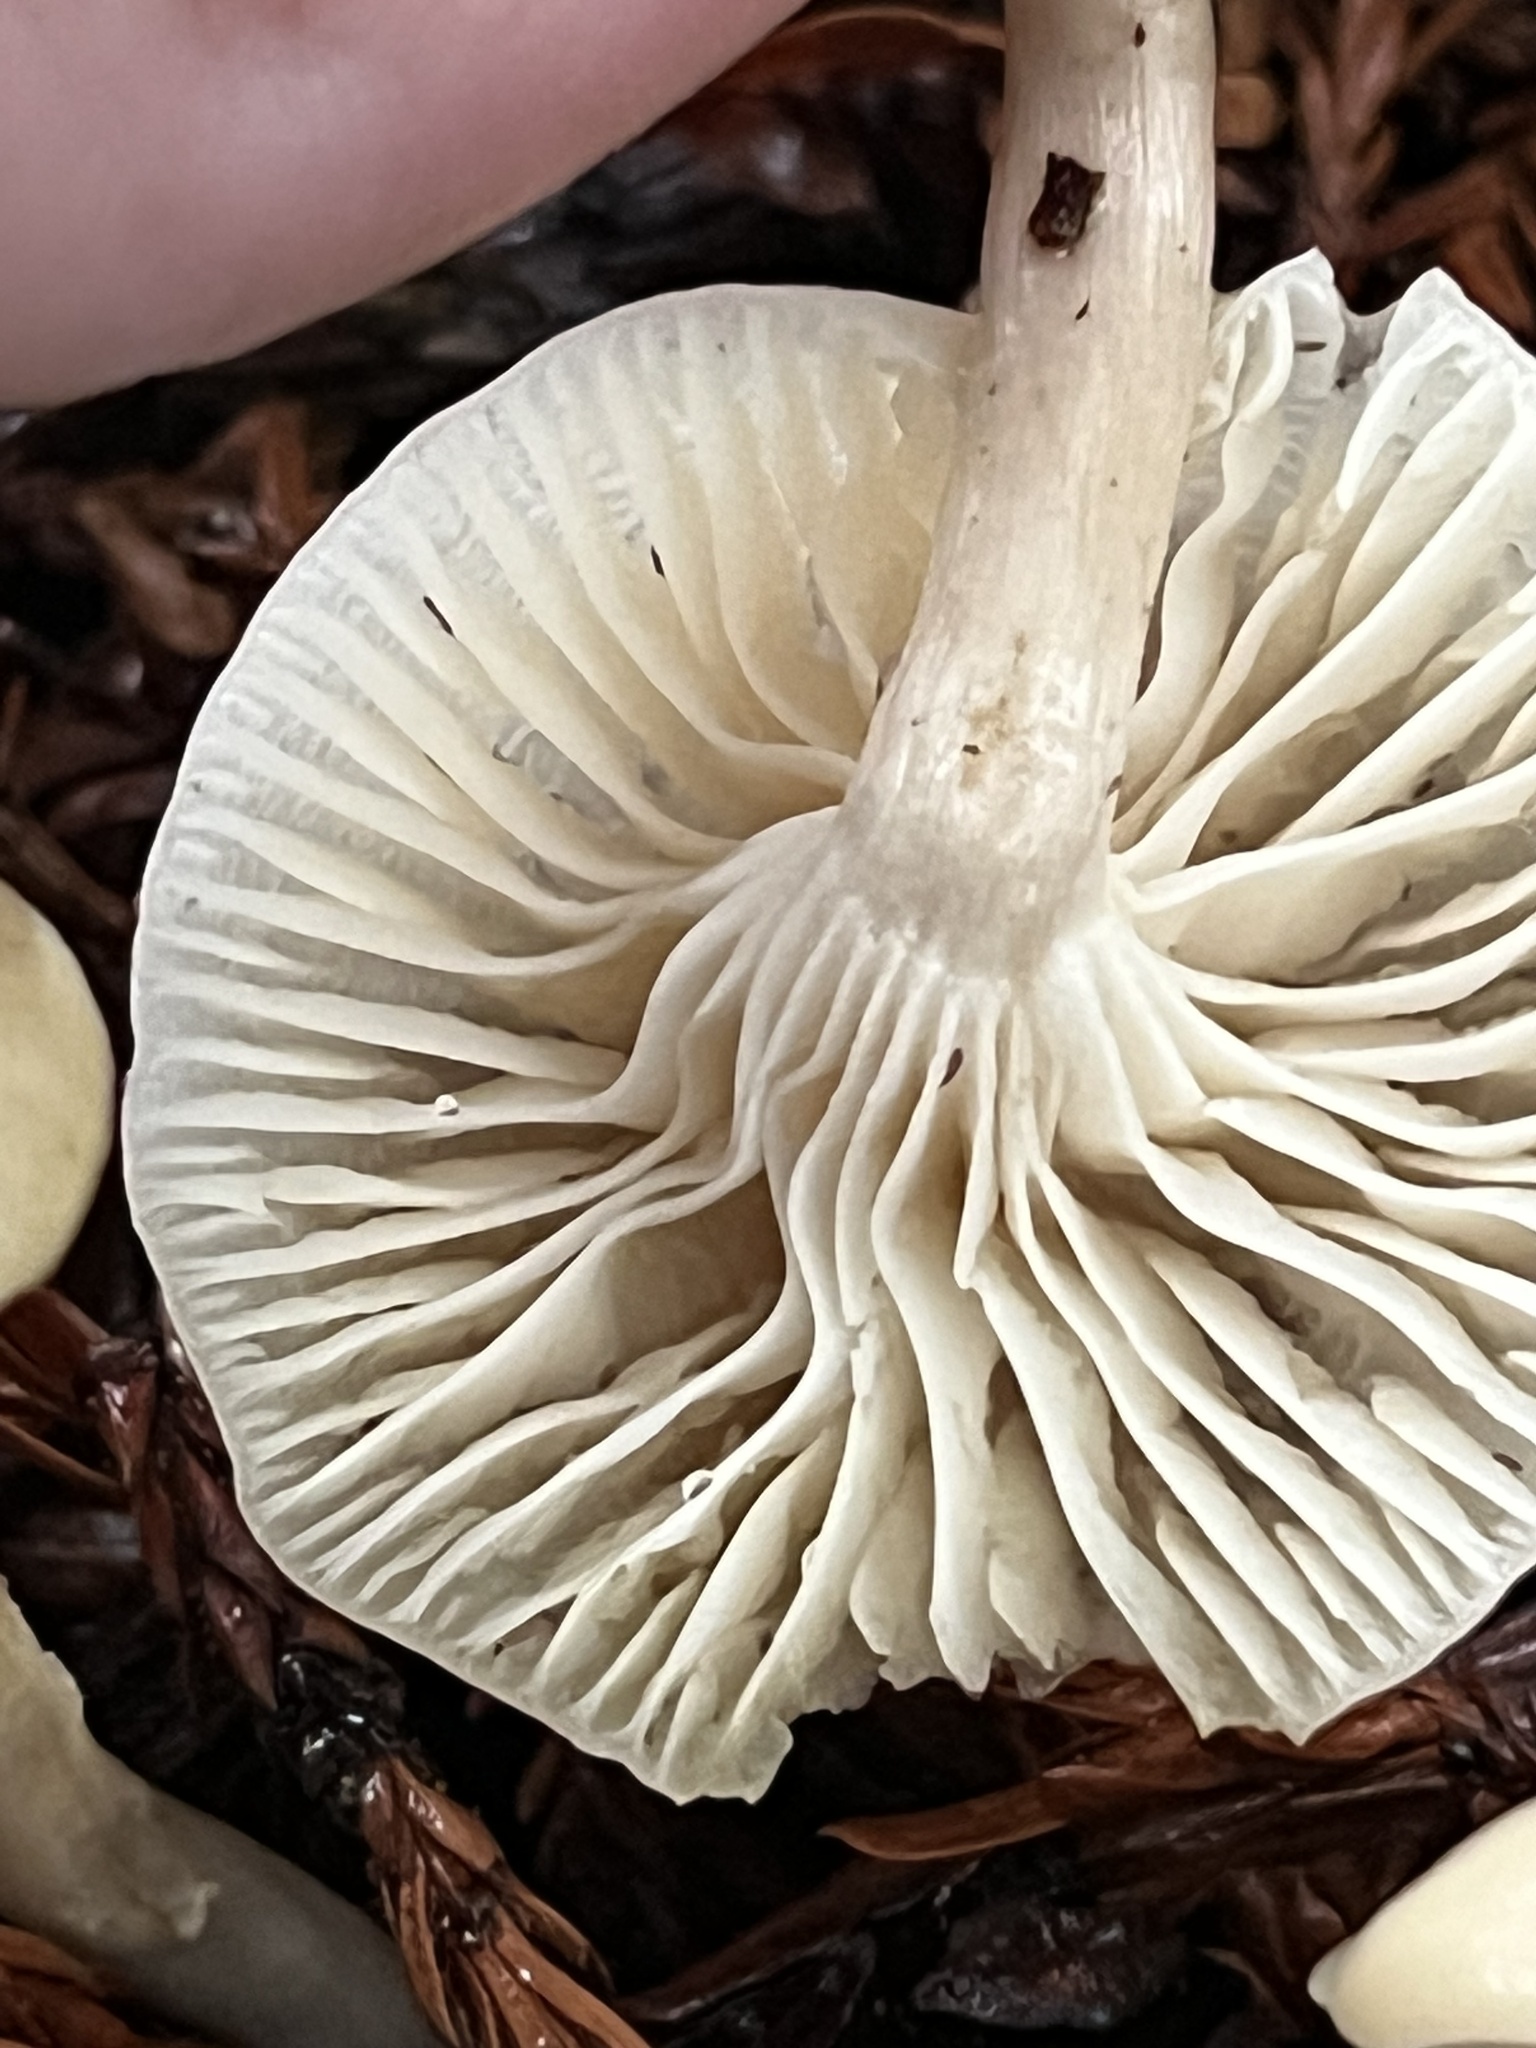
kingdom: Fungi
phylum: Basidiomycota
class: Agaricomycetes
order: Agaricales
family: Hygrophoraceae
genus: Cuphophyllus
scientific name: Cuphophyllus virgineus
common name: Snowy waxcap
